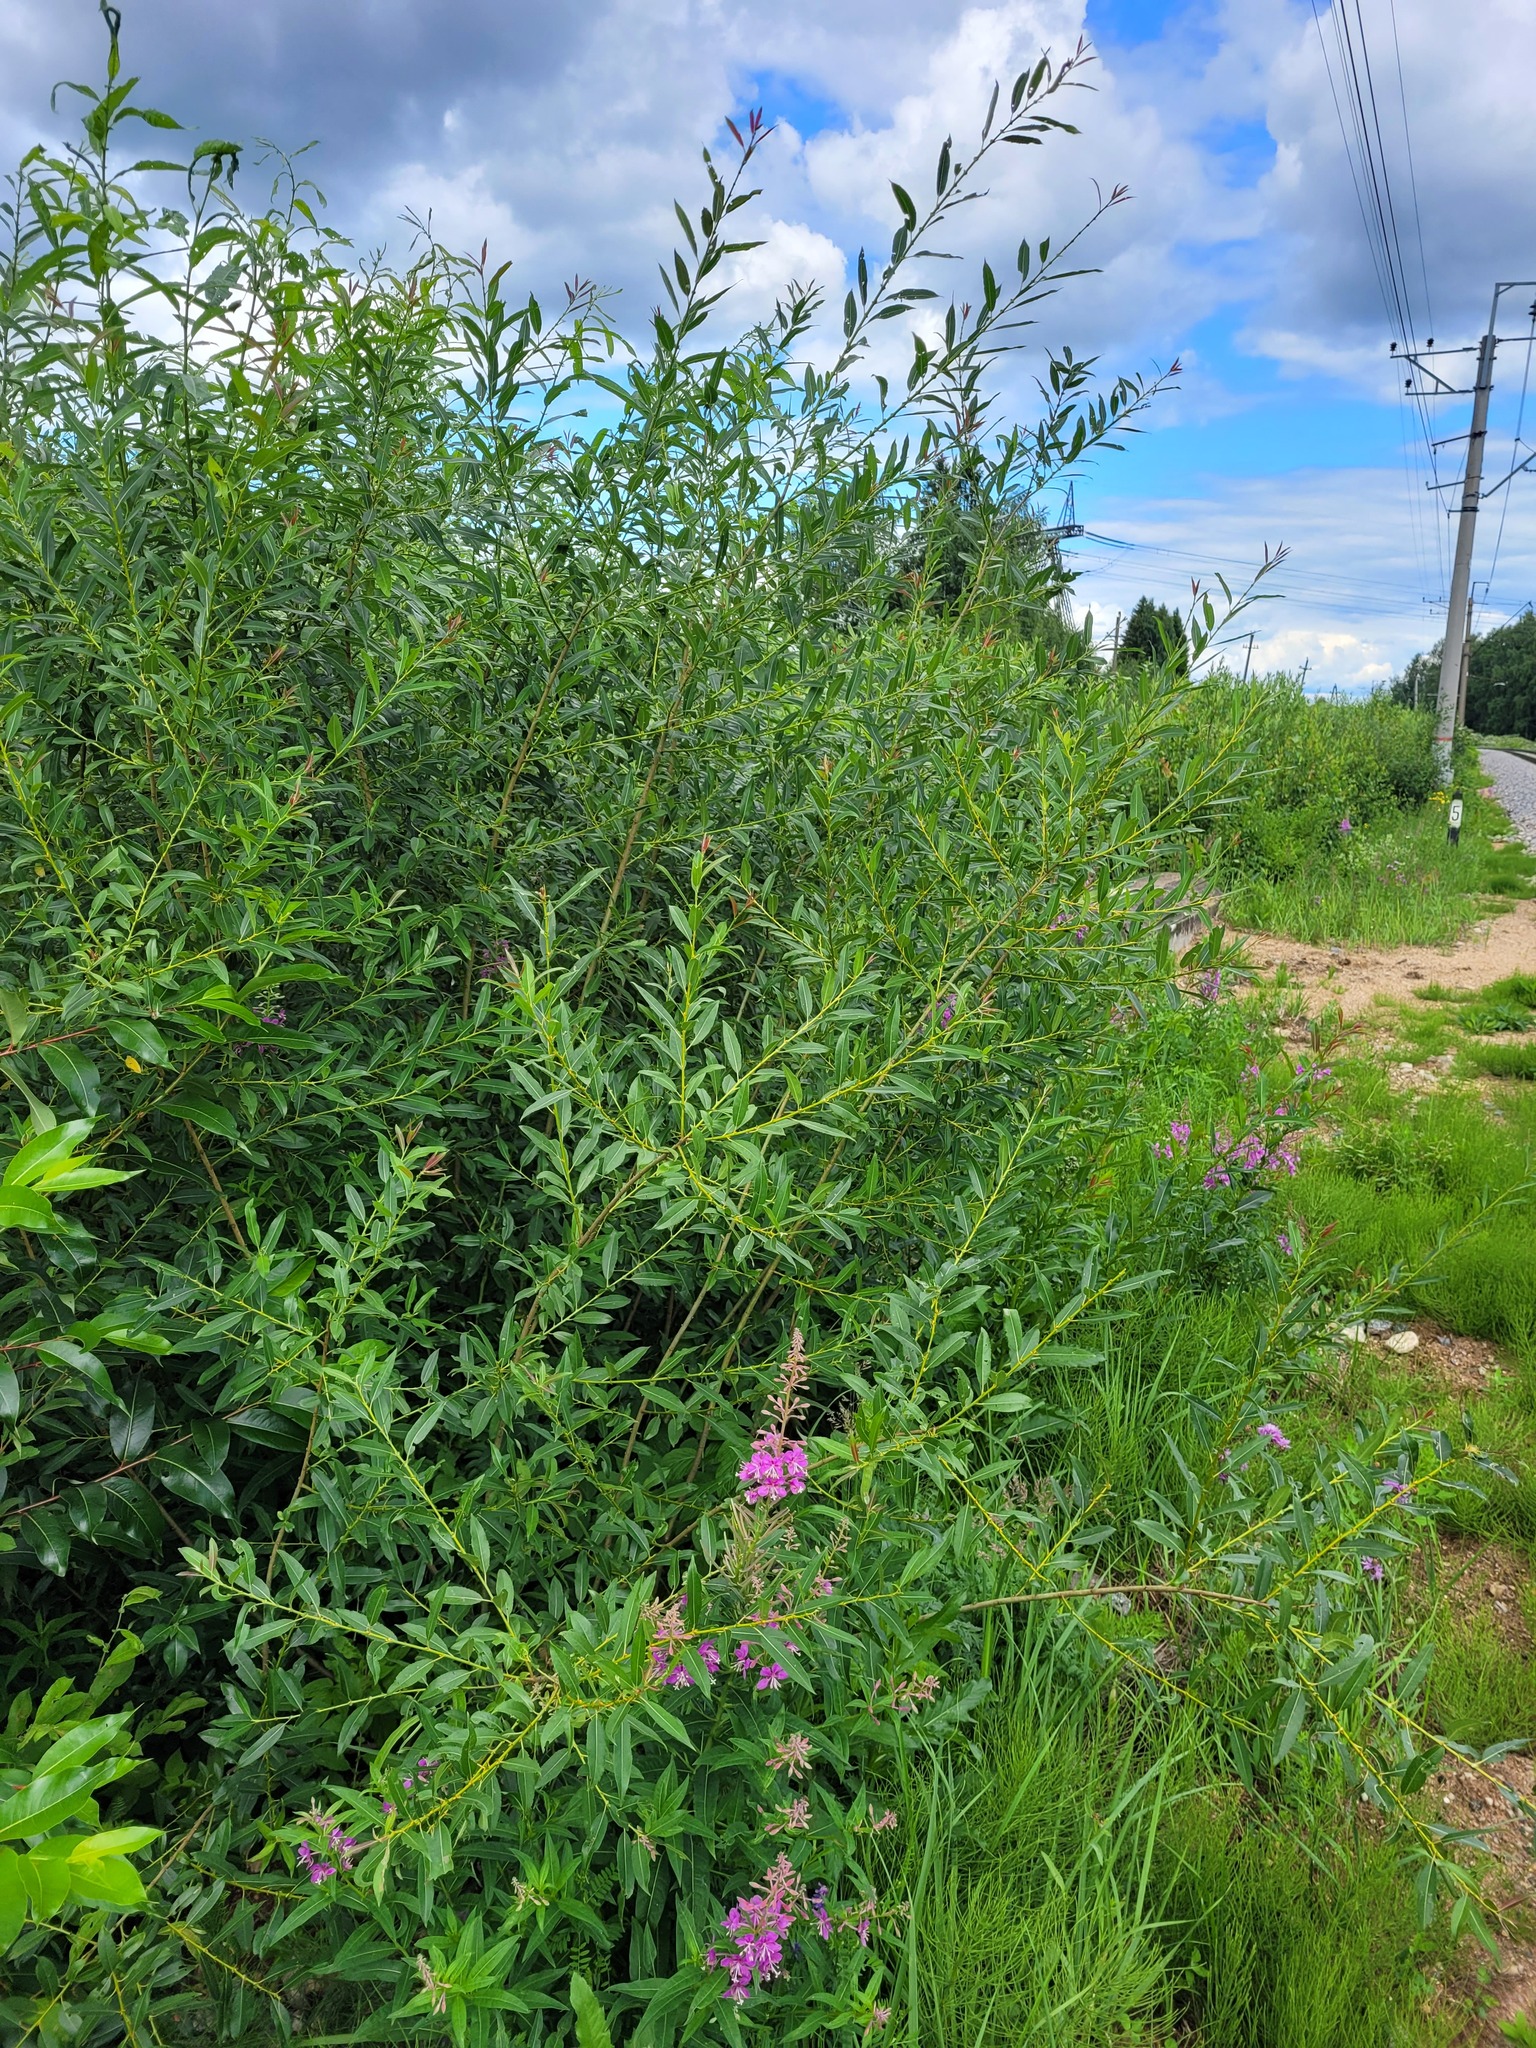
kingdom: Plantae
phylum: Tracheophyta
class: Magnoliopsida
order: Malpighiales
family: Salicaceae
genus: Salix
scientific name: Salix triandra
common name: Almond willow
